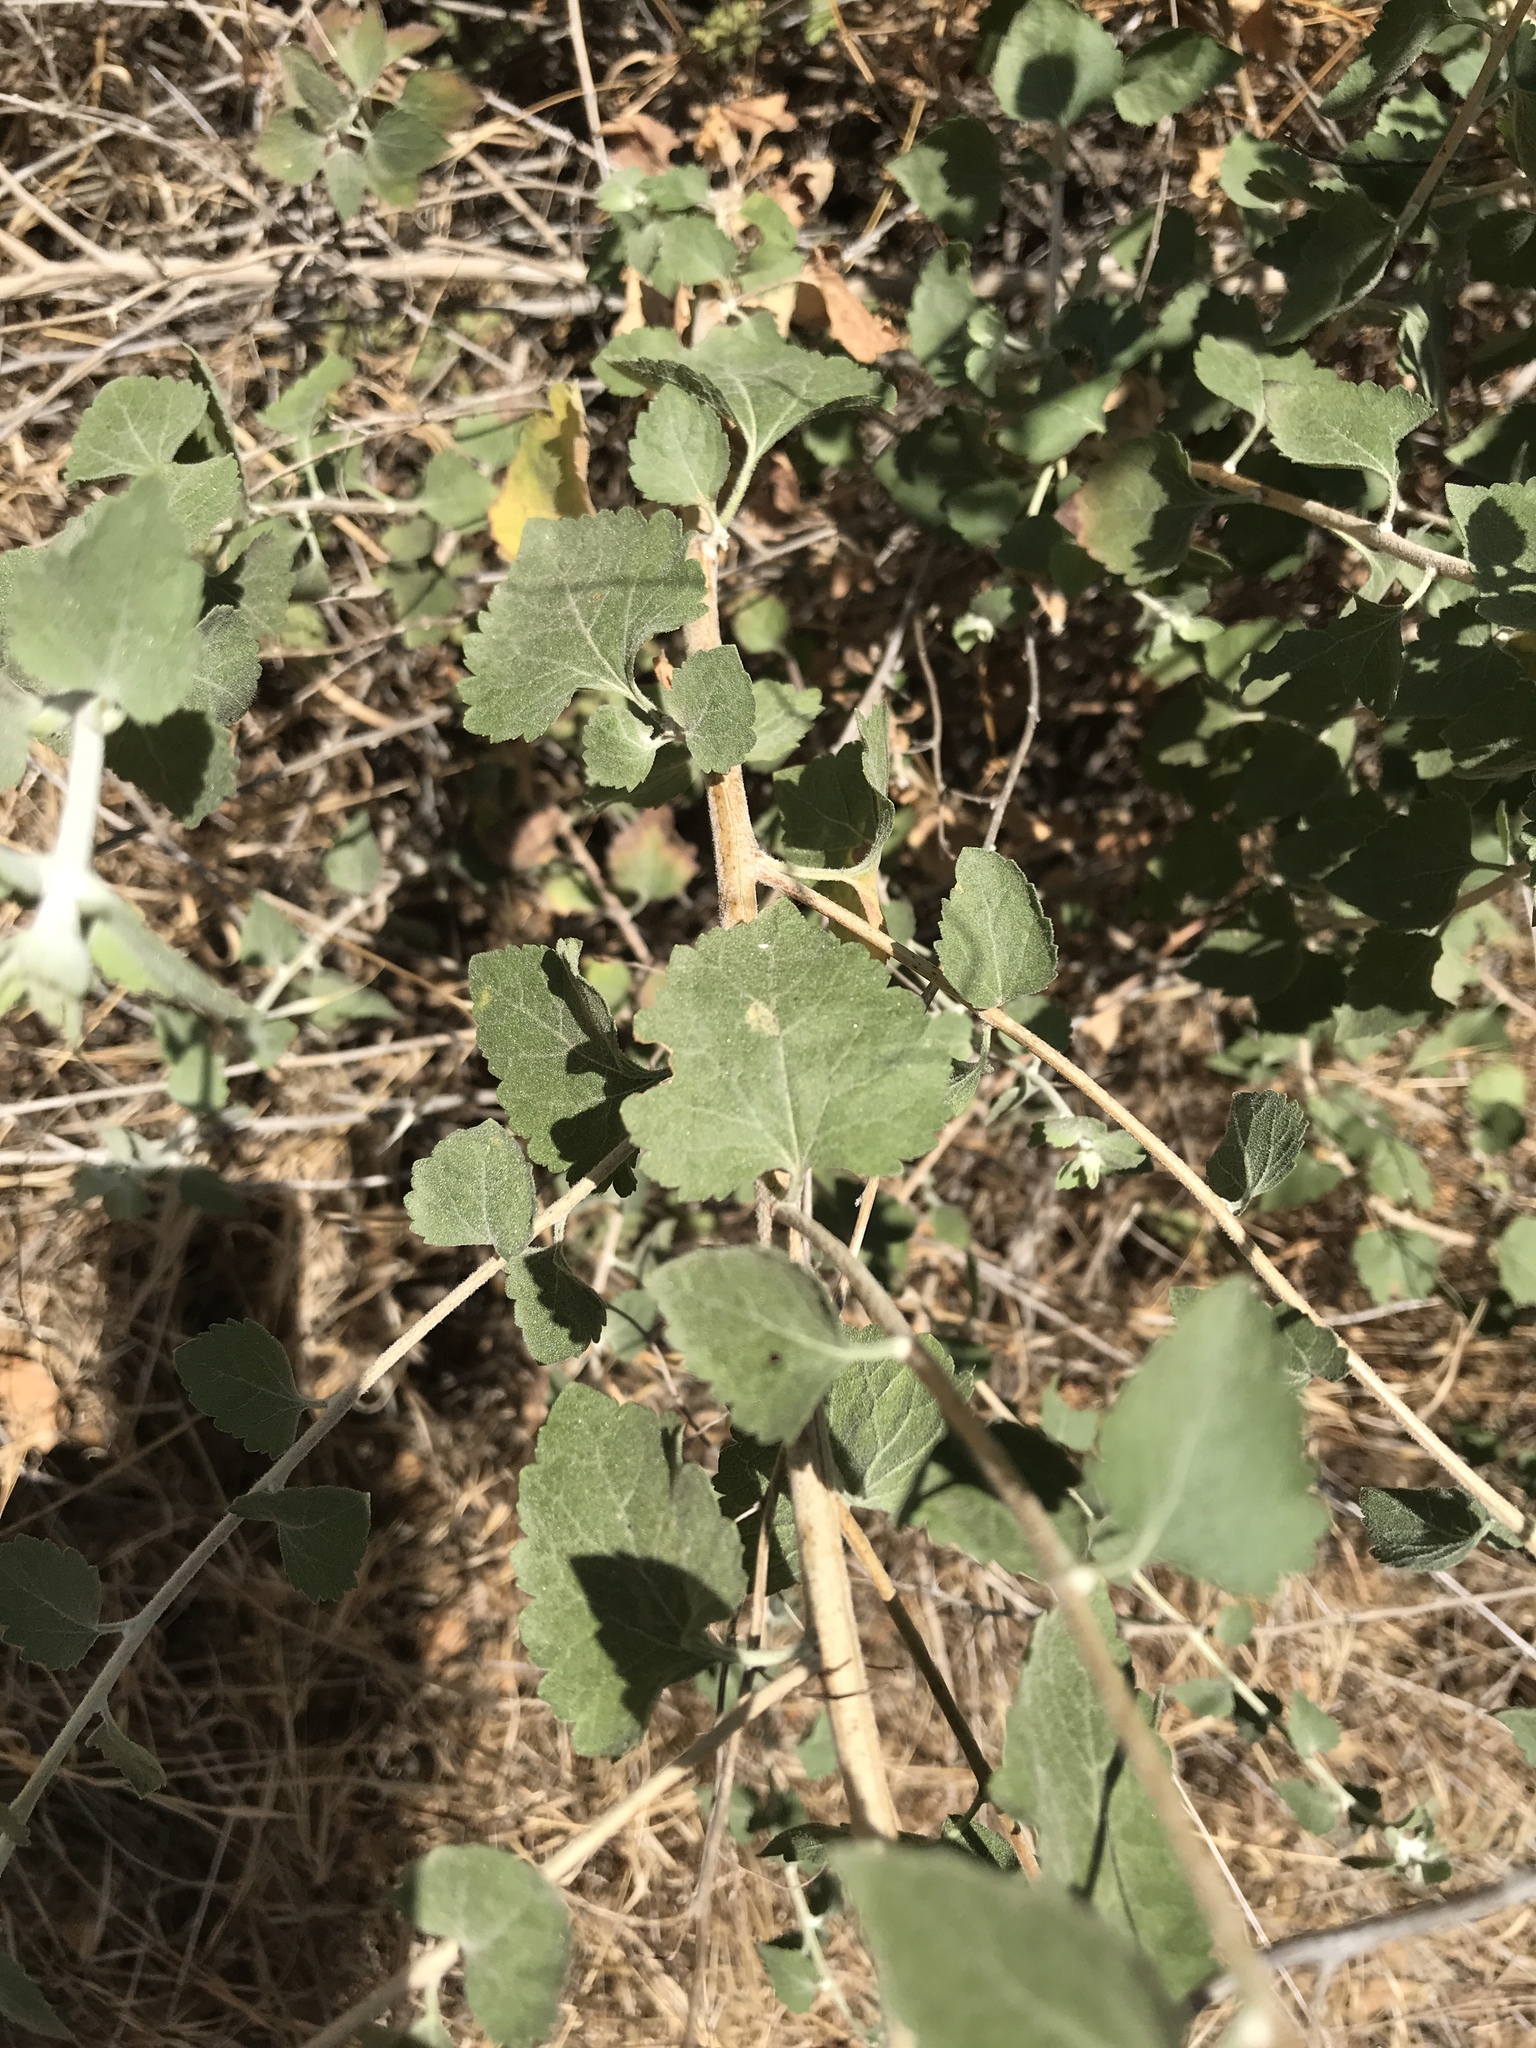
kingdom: Plantae
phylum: Tracheophyta
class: Magnoliopsida
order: Asterales
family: Asteraceae
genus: Brickellia
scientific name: Brickellia californica
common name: California brickellbush
